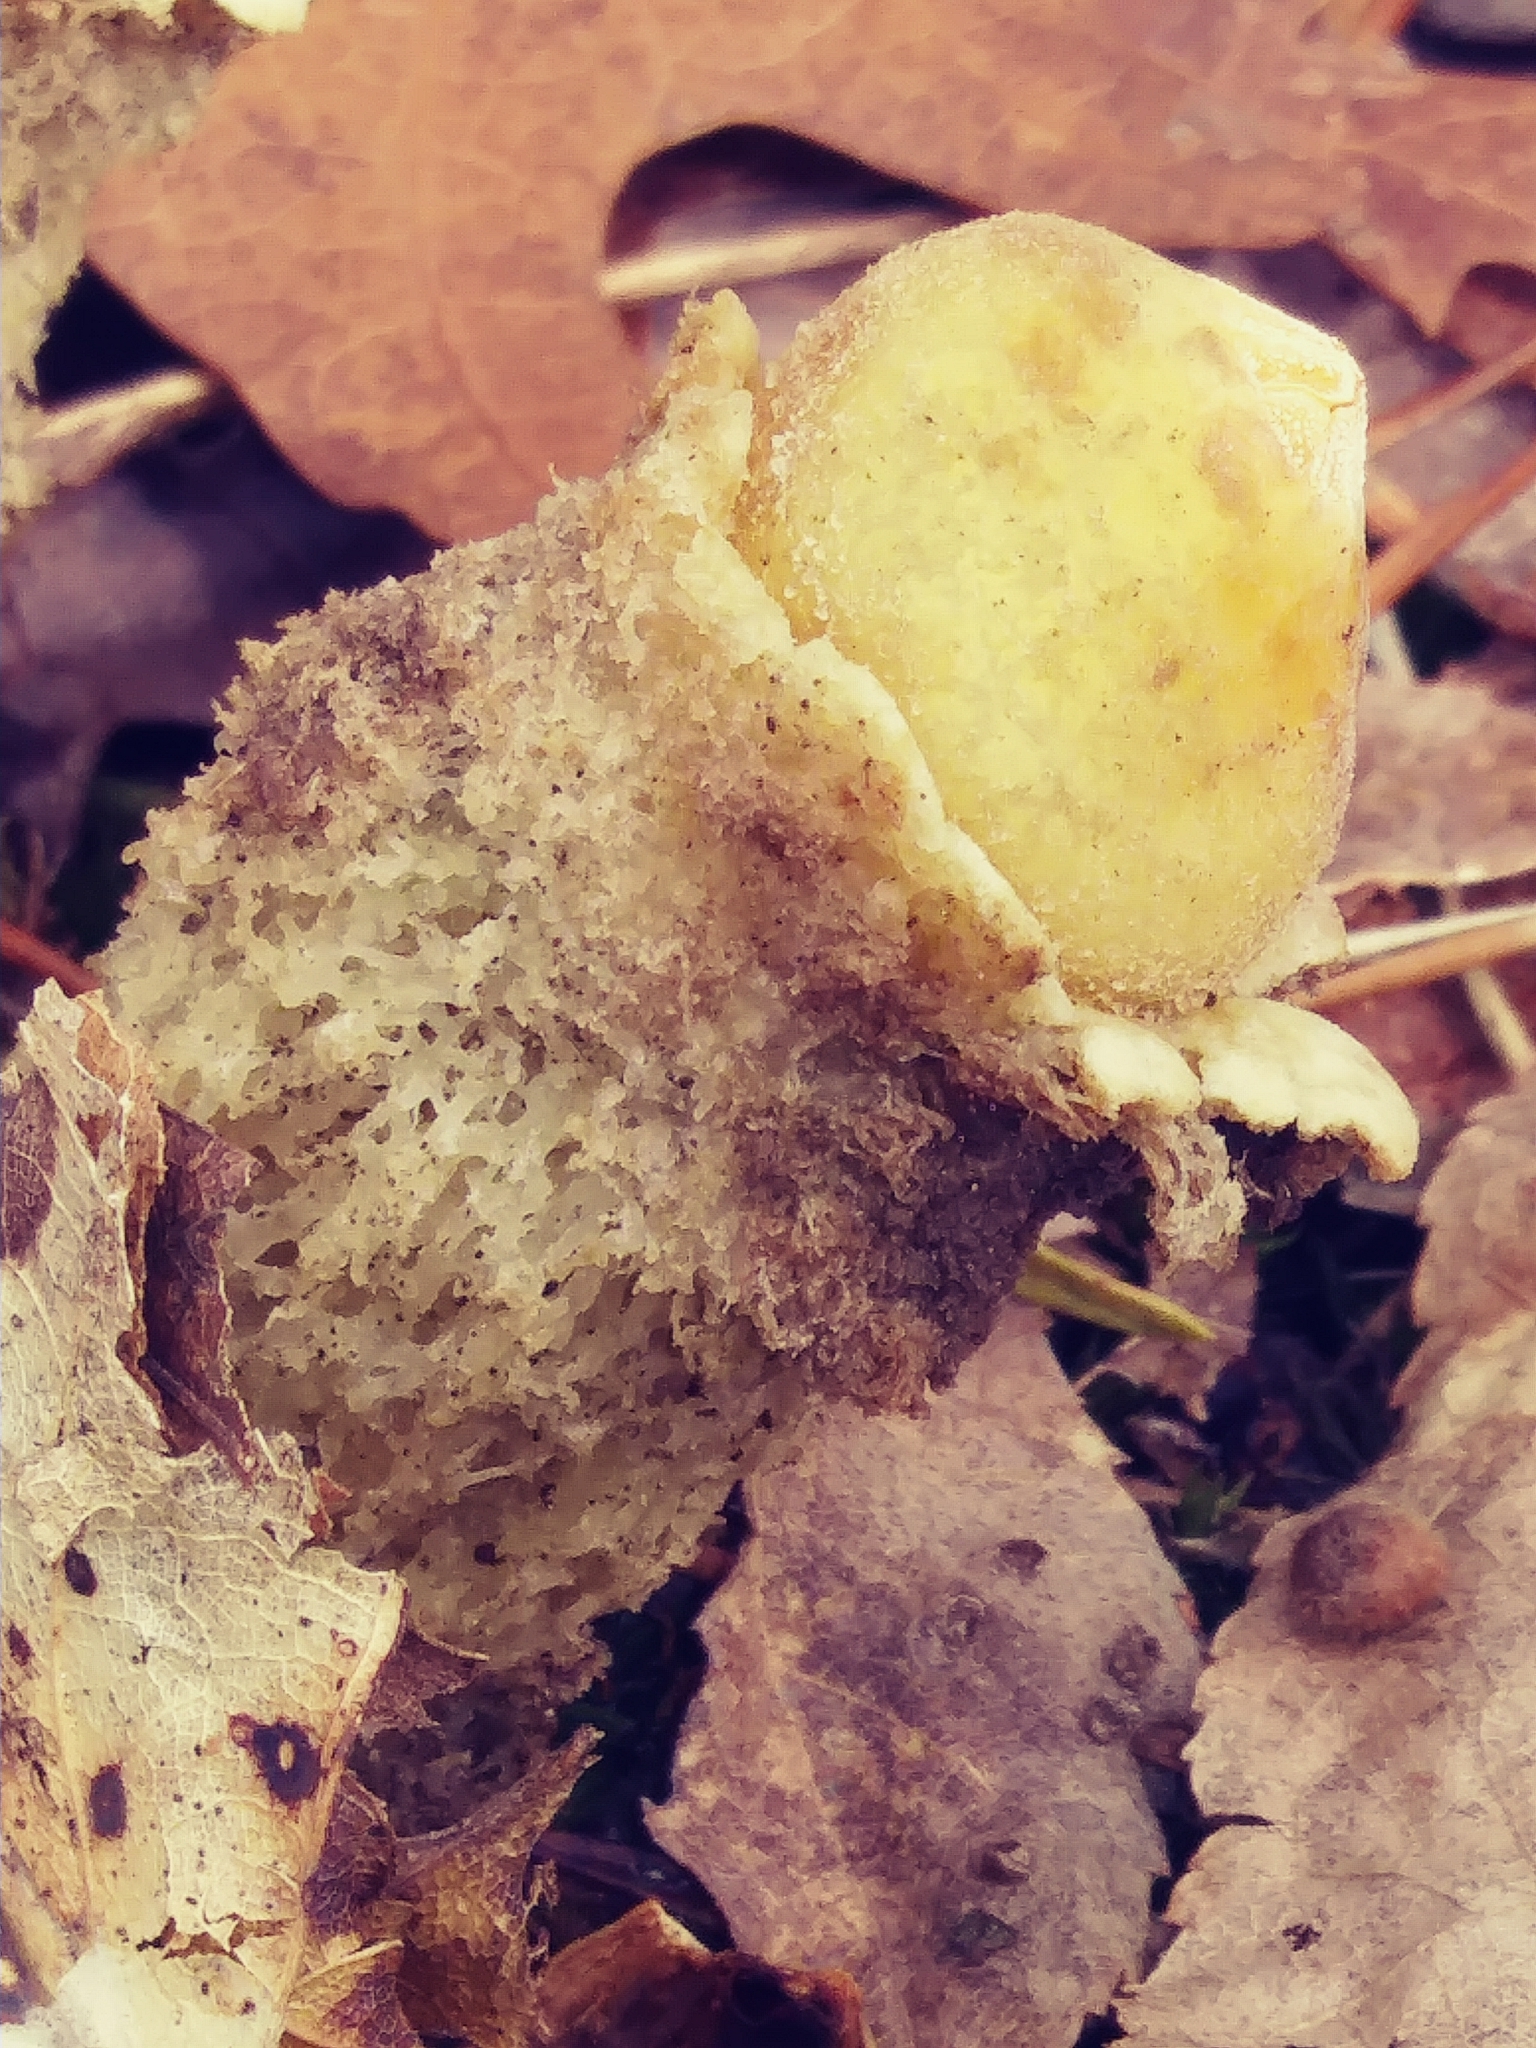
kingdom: Fungi
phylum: Basidiomycota
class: Agaricomycetes
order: Boletales
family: Calostomataceae
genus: Calostoma
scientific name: Calostoma lutescens
